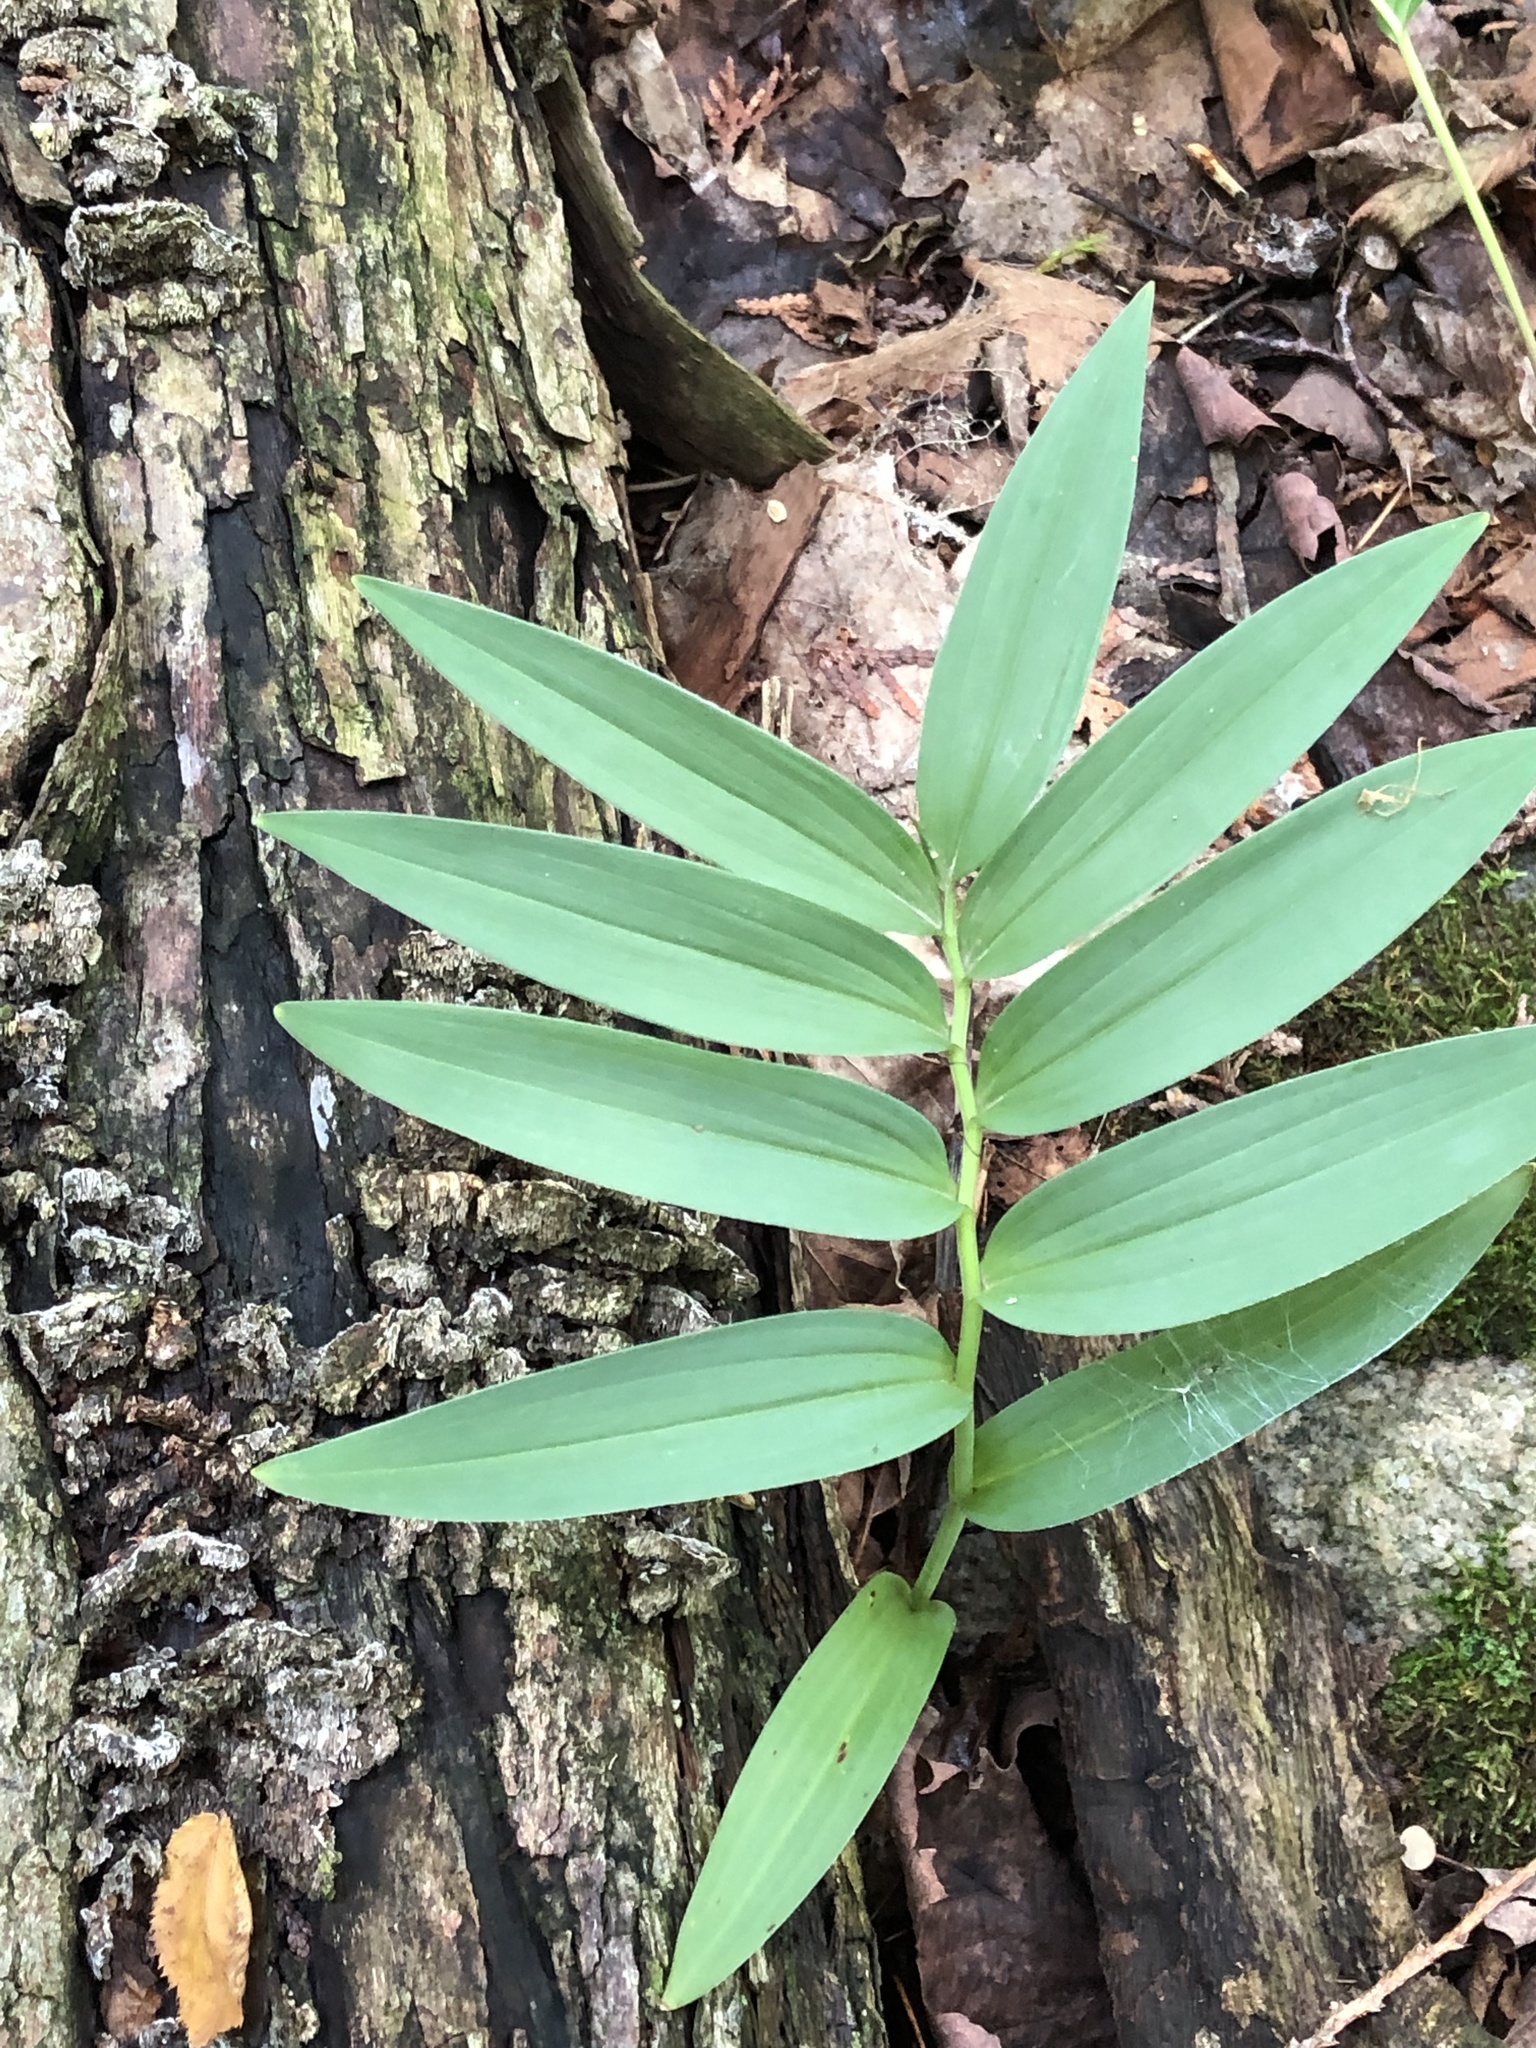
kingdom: Plantae
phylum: Tracheophyta
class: Liliopsida
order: Asparagales
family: Asparagaceae
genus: Maianthemum
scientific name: Maianthemum stellatum
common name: Little false solomon's seal
